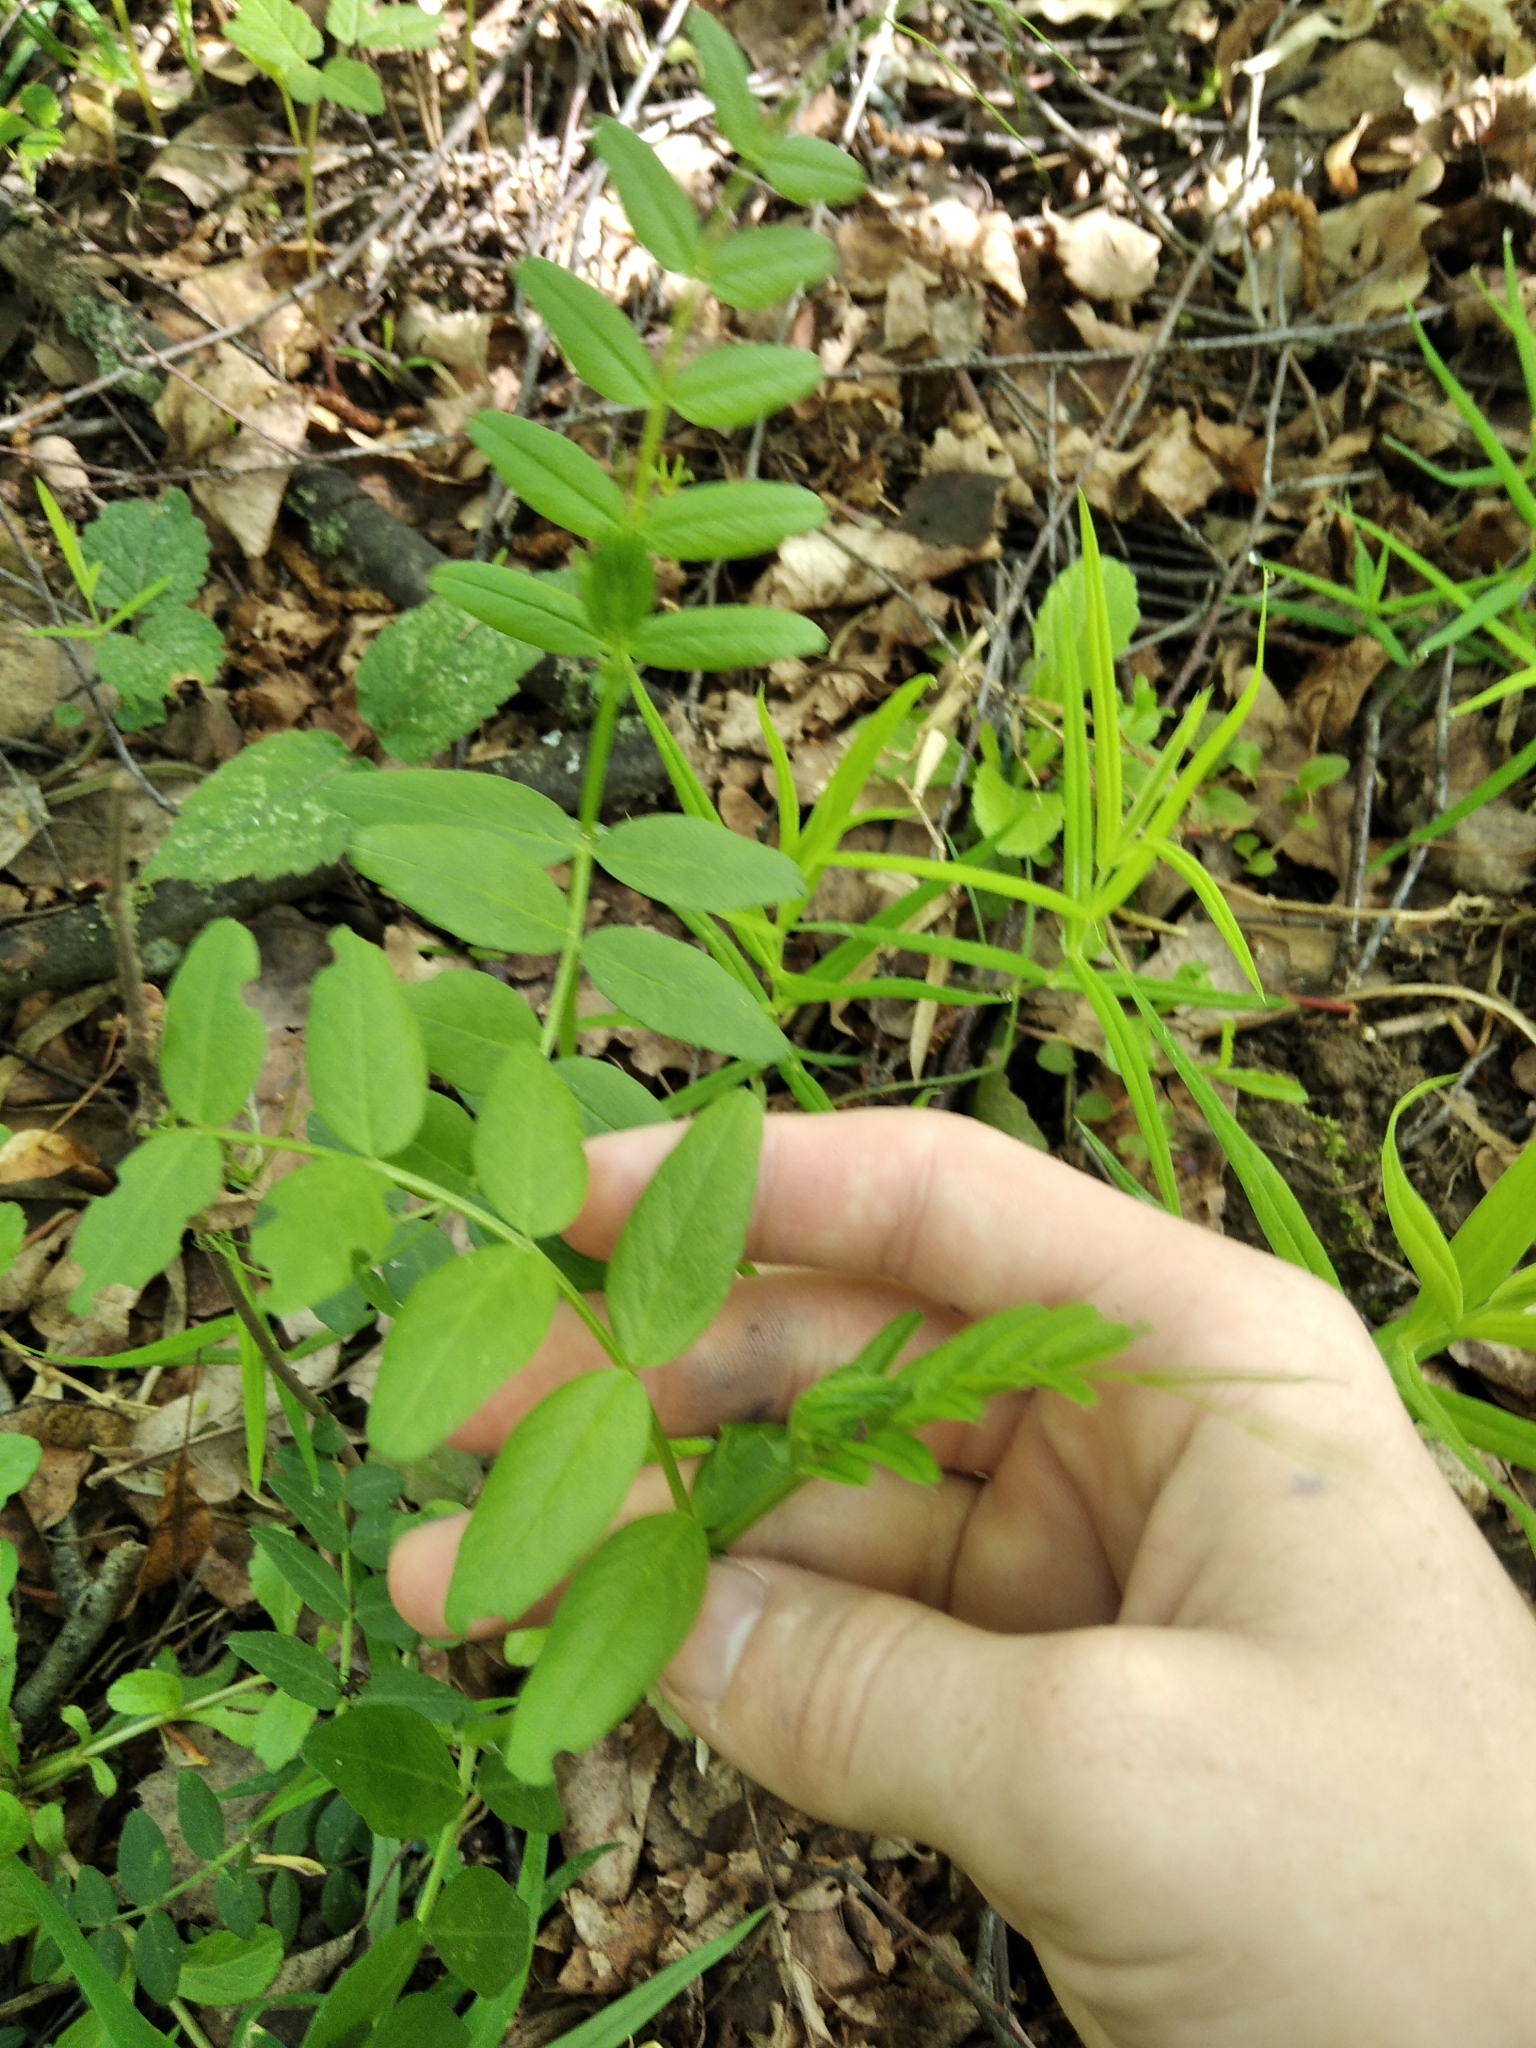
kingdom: Plantae
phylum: Tracheophyta
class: Magnoliopsida
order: Fabales
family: Fabaceae
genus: Vicia
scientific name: Vicia sepium
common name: Bush vetch
